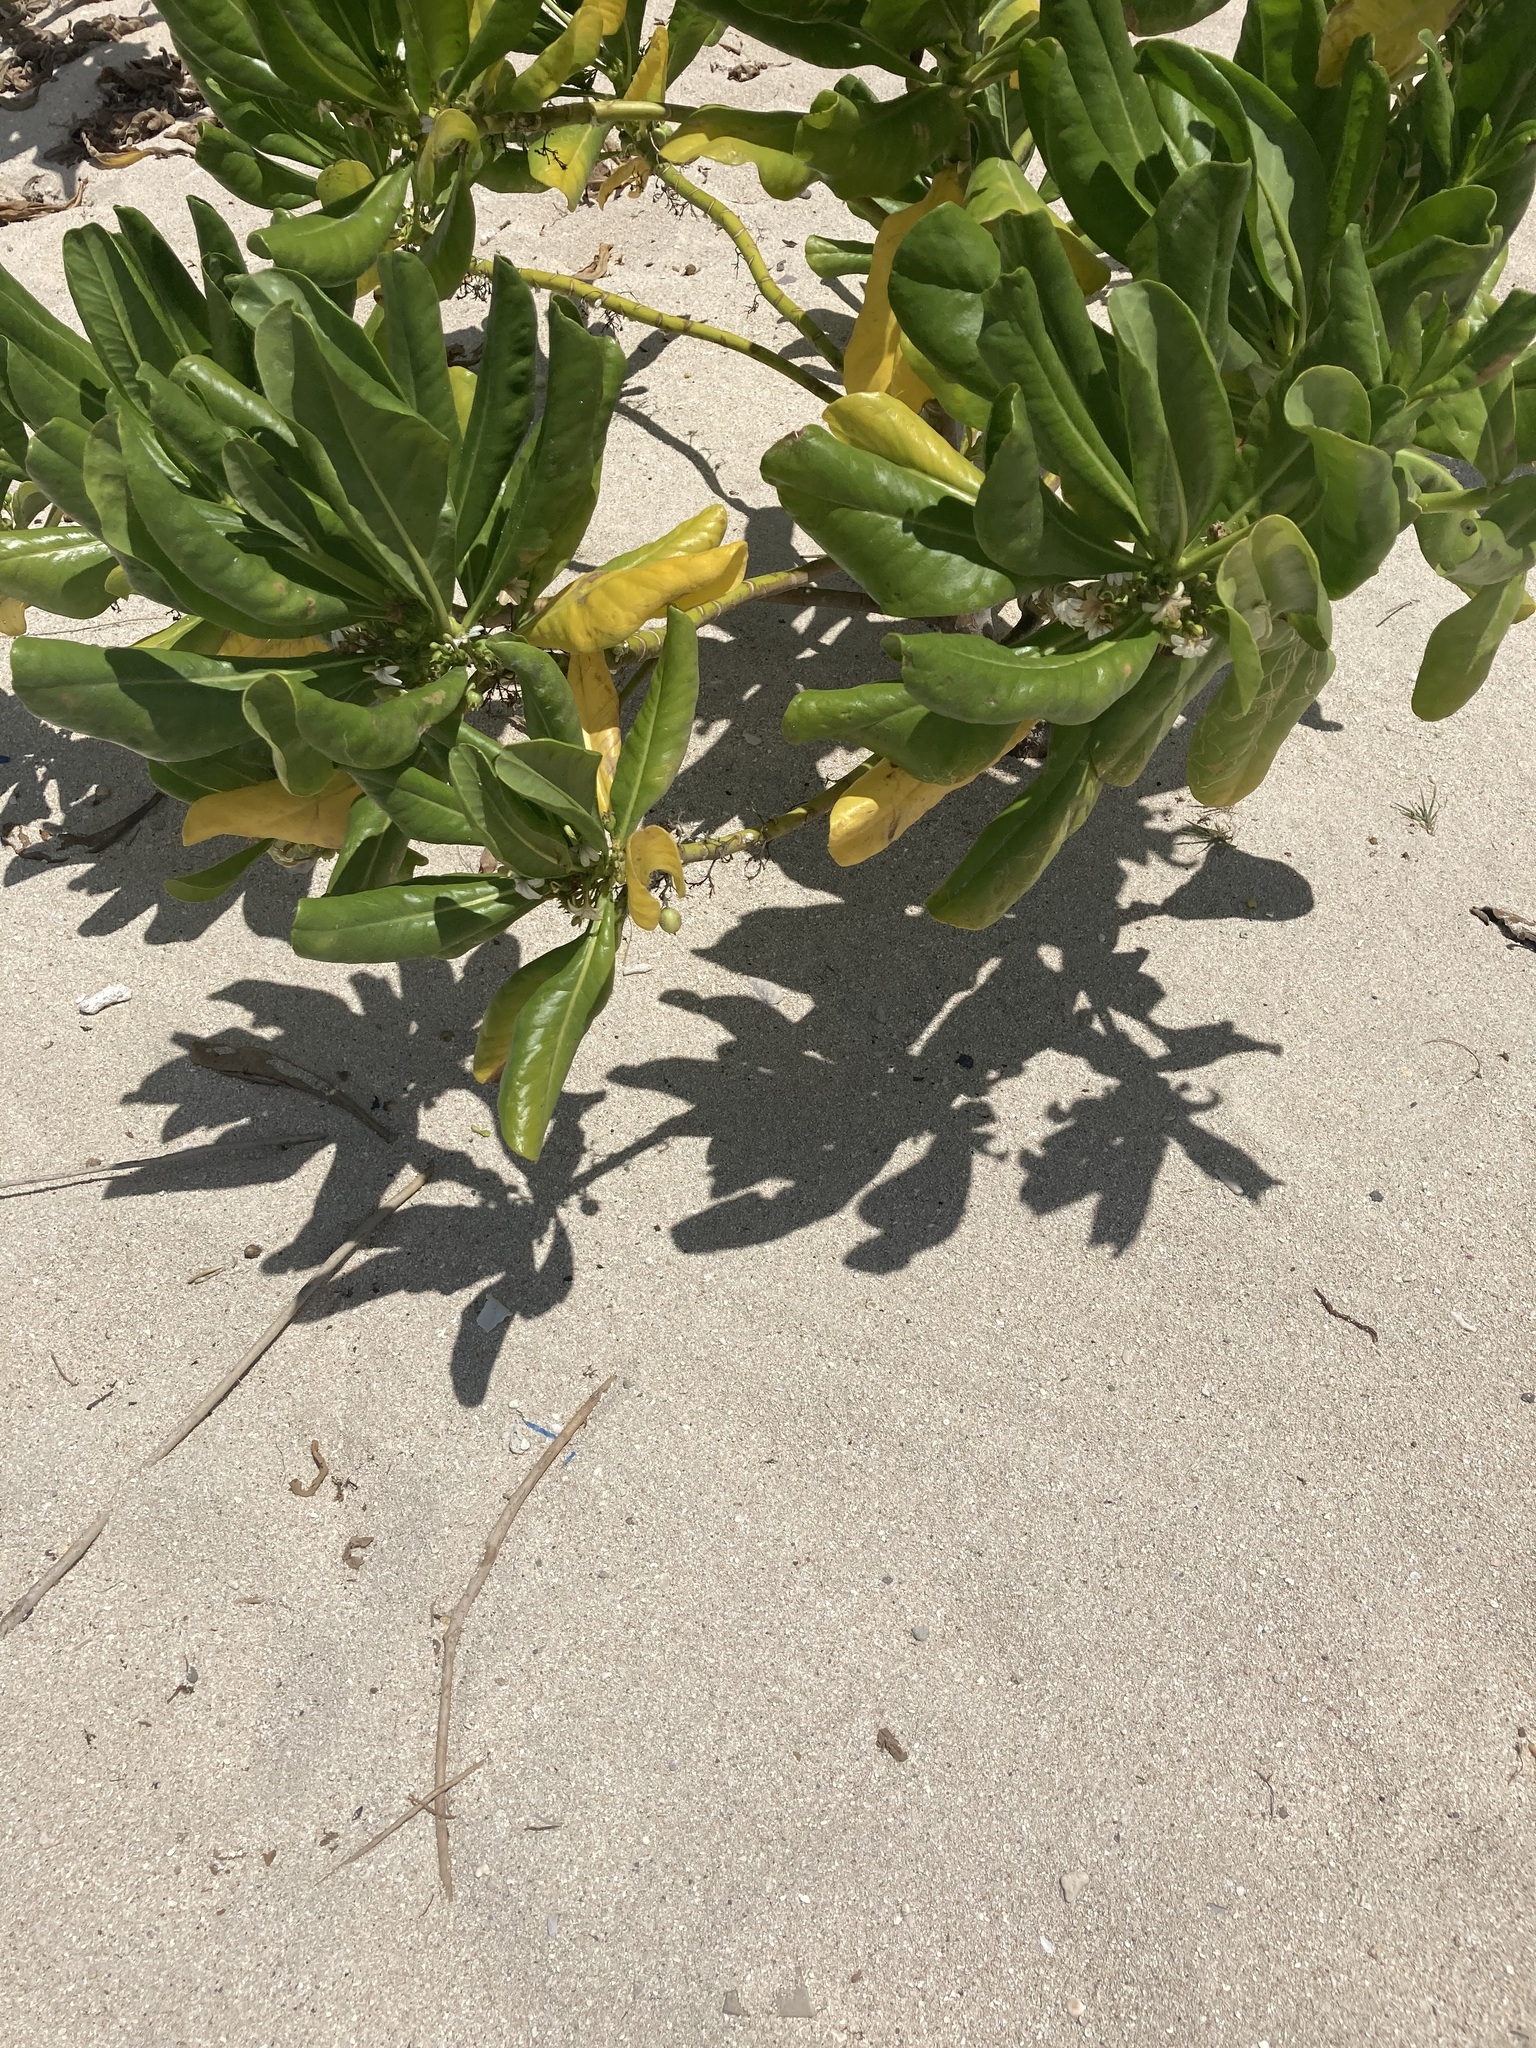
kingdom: Plantae
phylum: Tracheophyta
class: Magnoliopsida
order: Asterales
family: Goodeniaceae
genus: Scaevola
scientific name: Scaevola taccada
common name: Sea lettucetree
